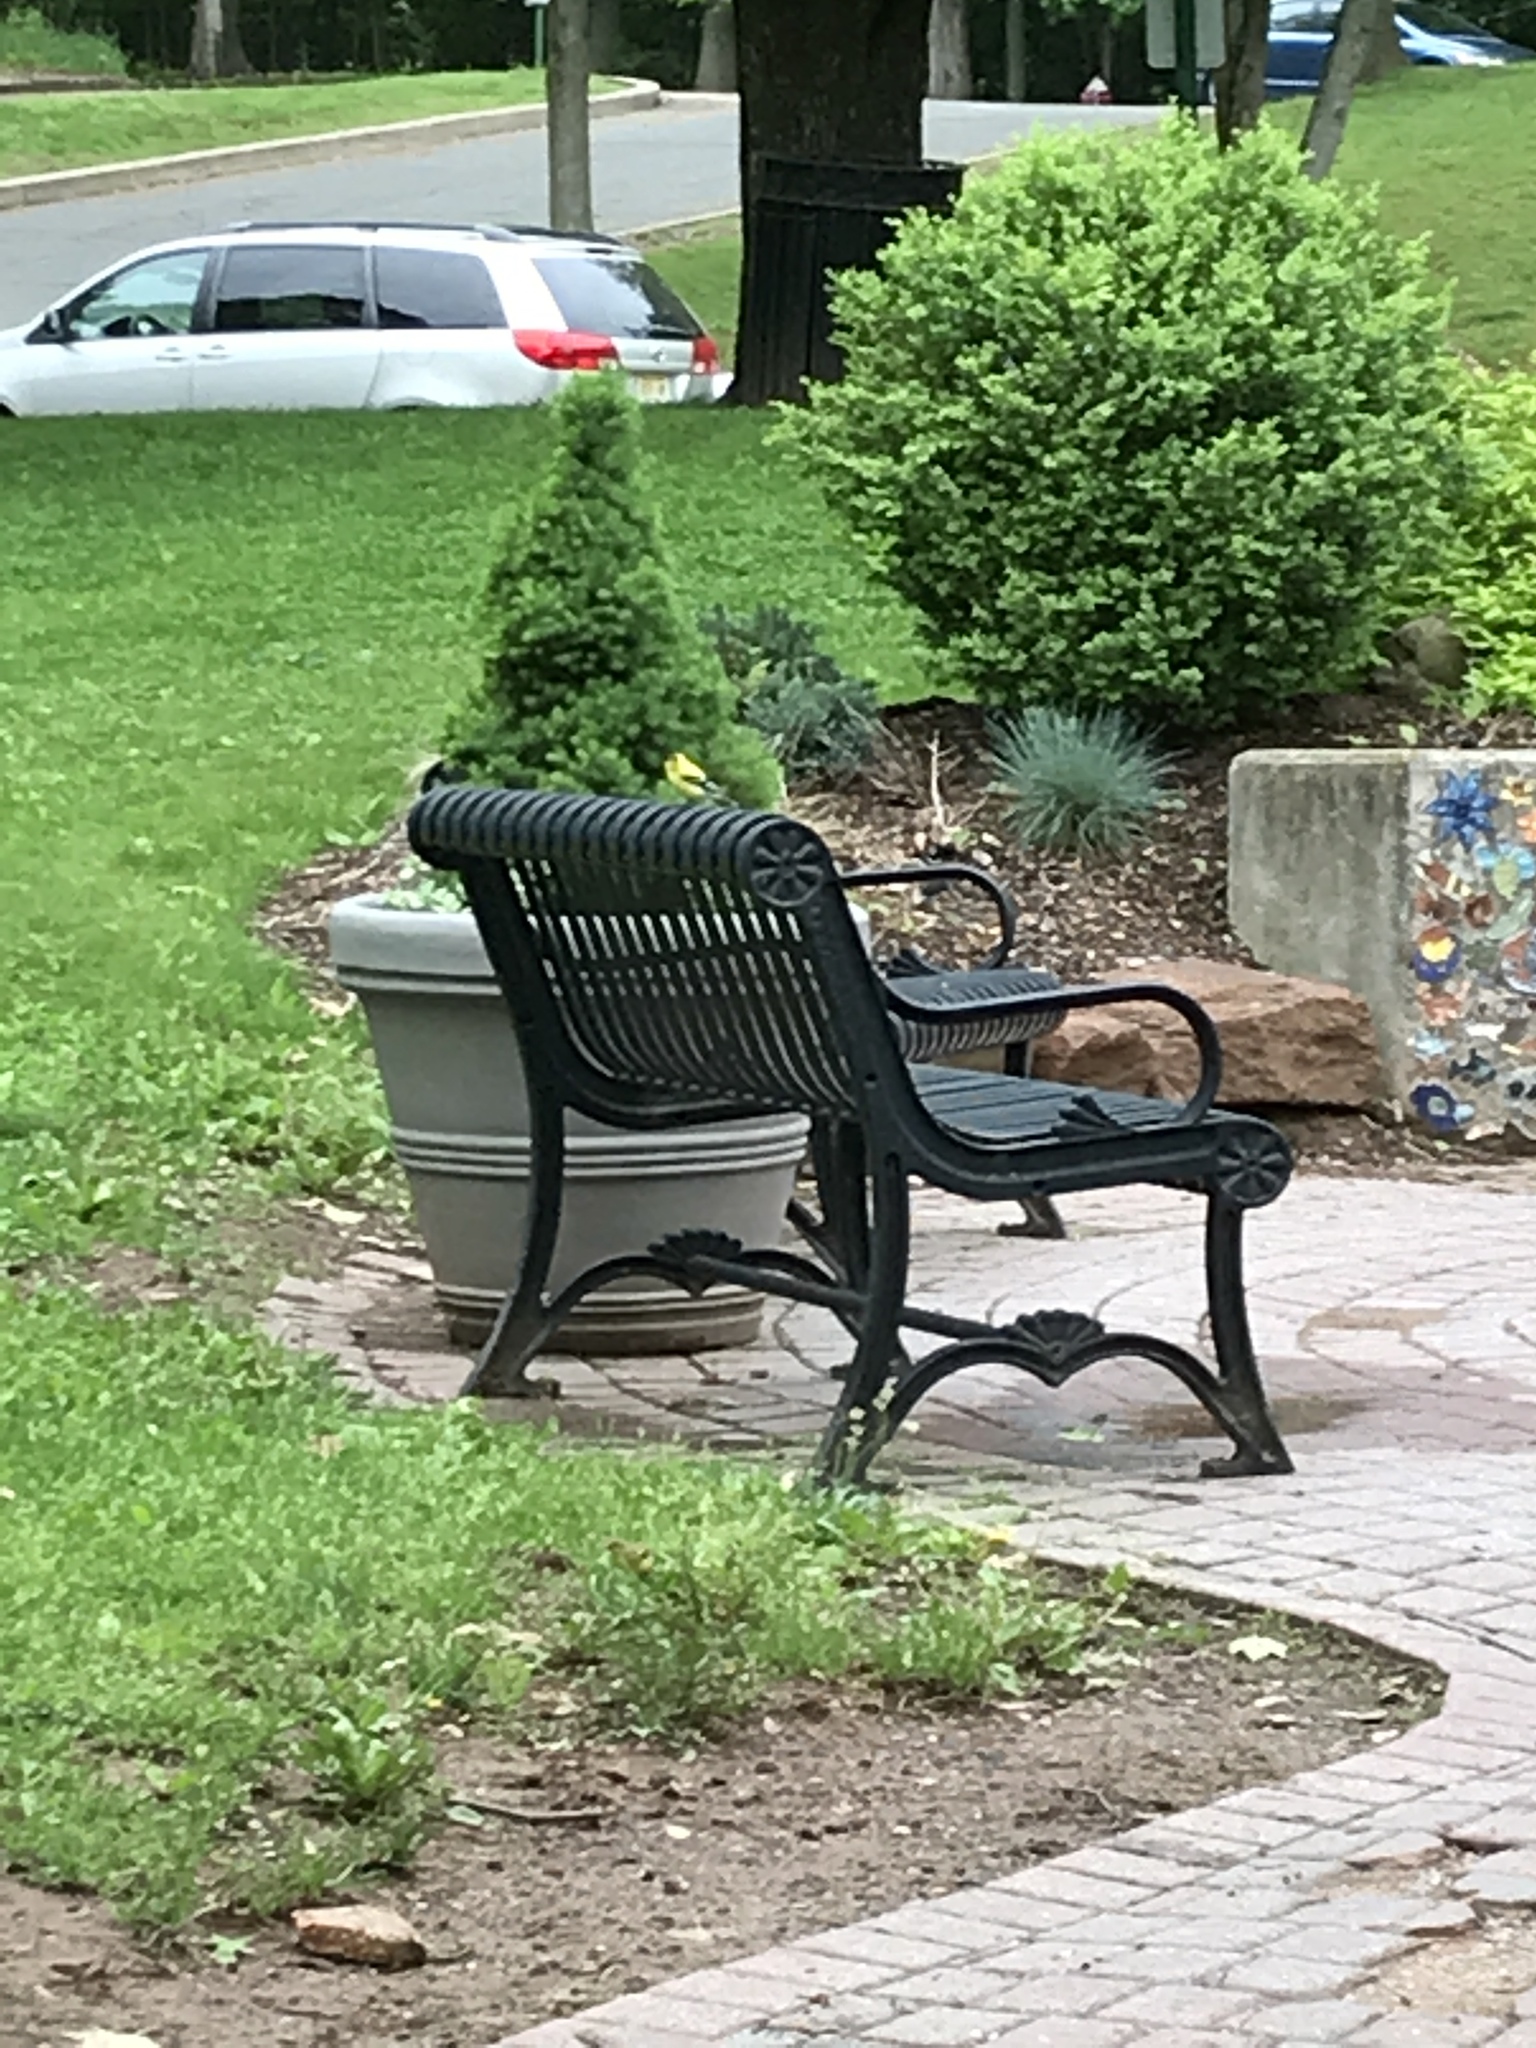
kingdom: Animalia
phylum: Chordata
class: Aves
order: Passeriformes
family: Fringillidae
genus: Spinus
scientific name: Spinus tristis
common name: American goldfinch
